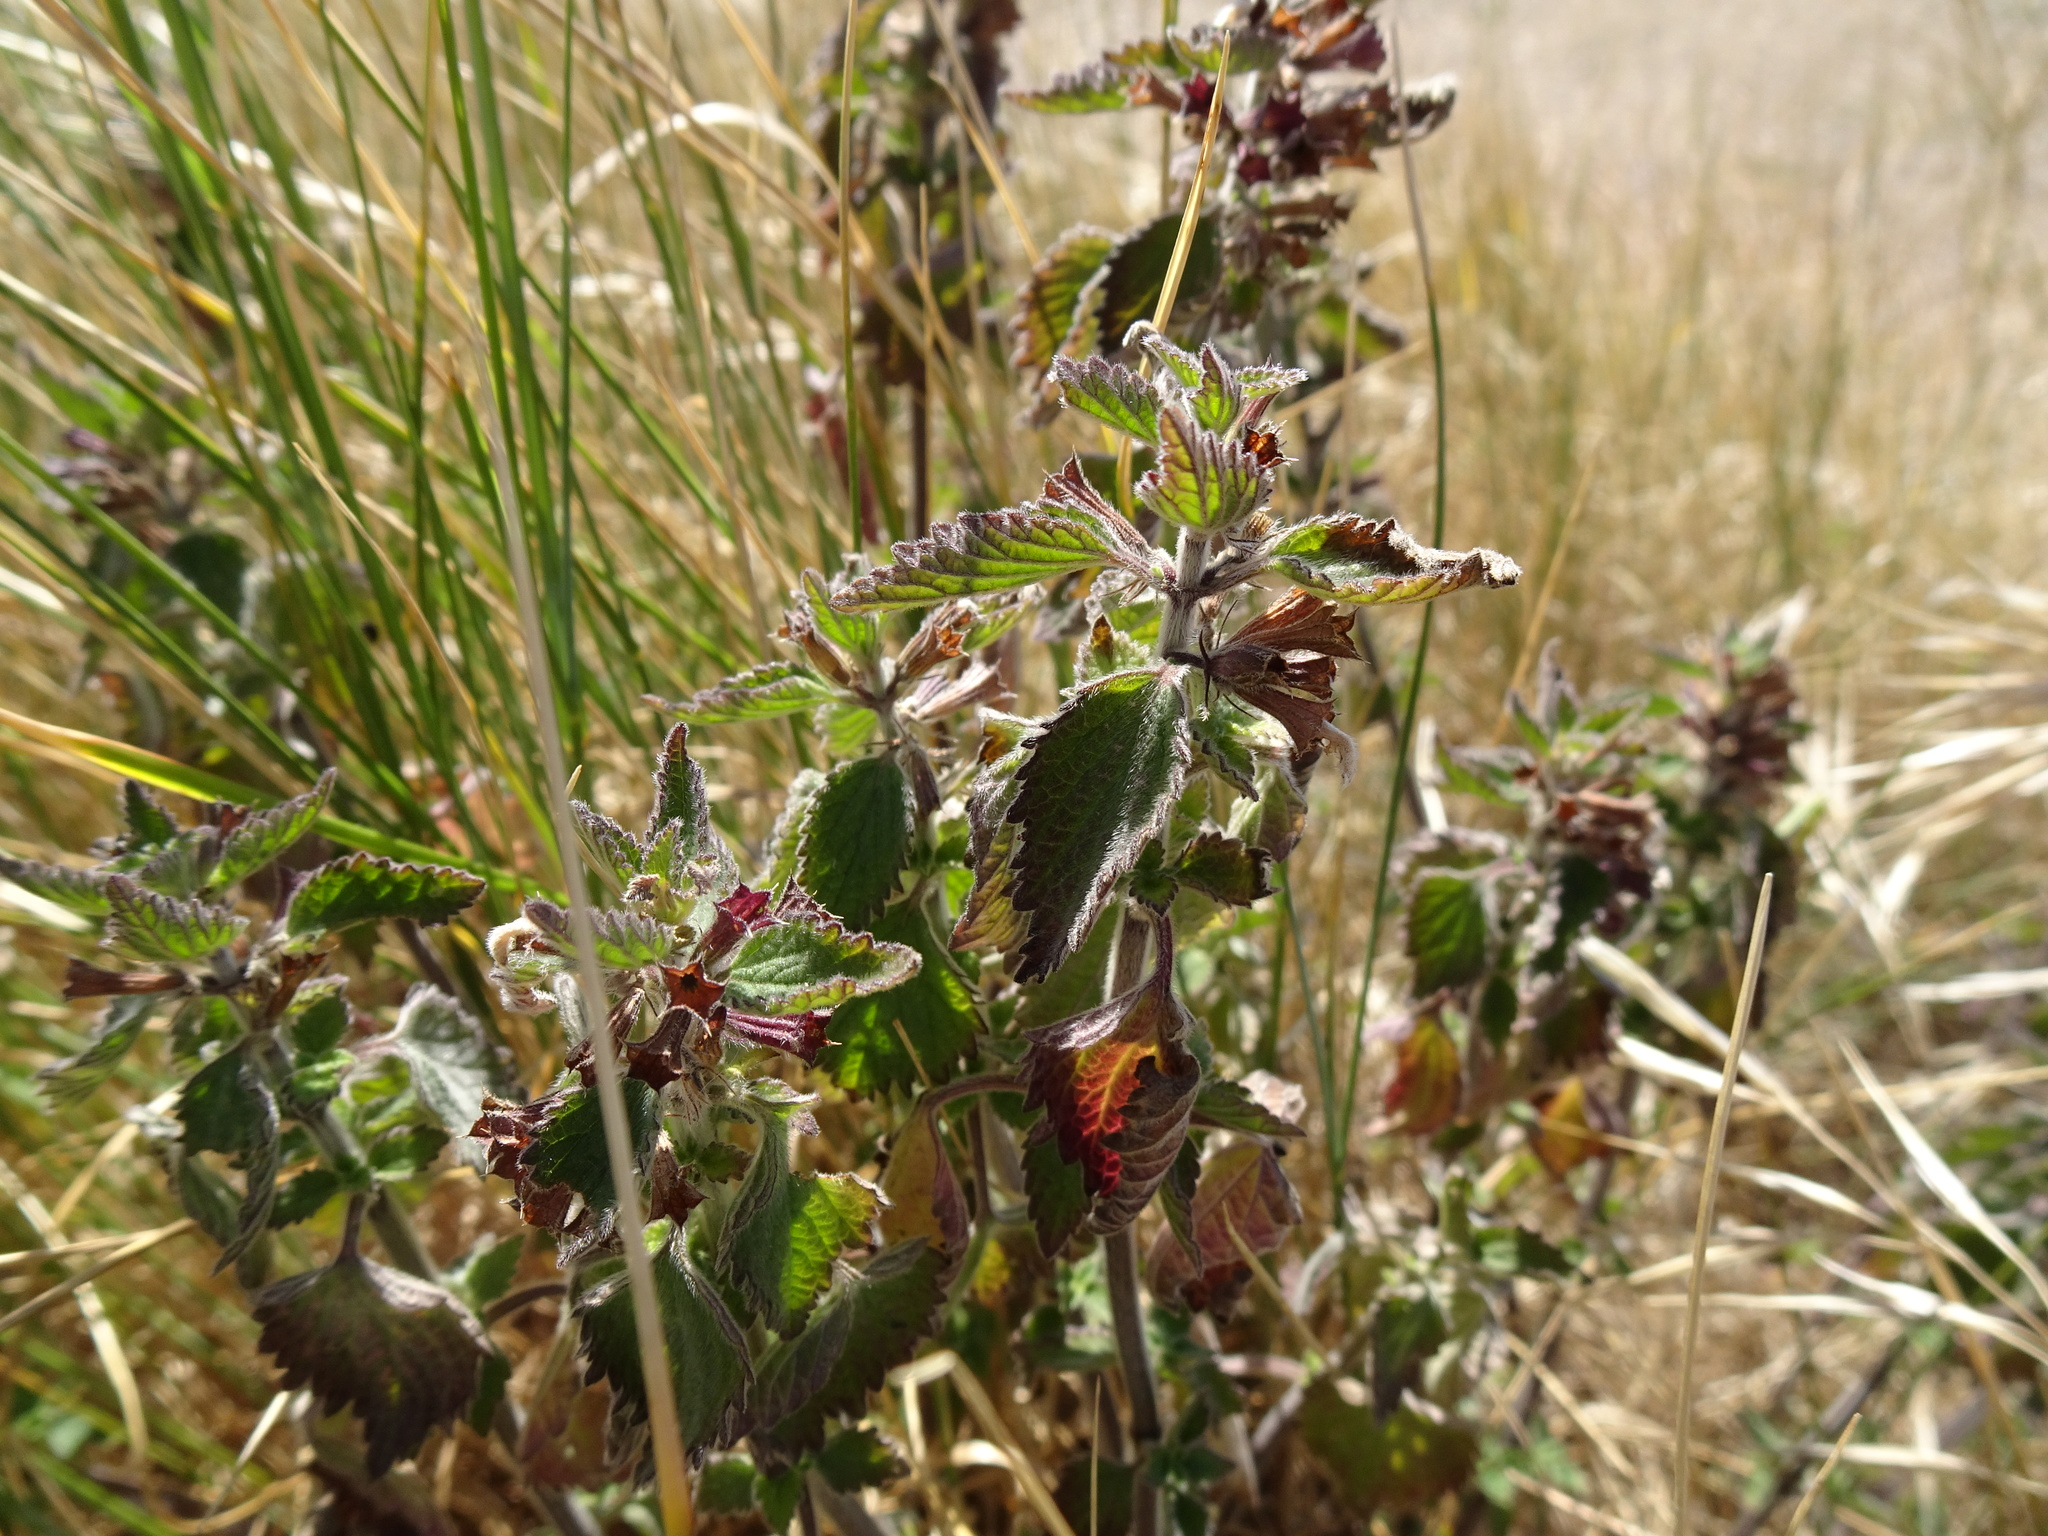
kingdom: Plantae
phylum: Tracheophyta
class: Magnoliopsida
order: Lamiales
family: Lamiaceae
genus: Ballota
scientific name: Ballota nigra
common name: Black horehound
